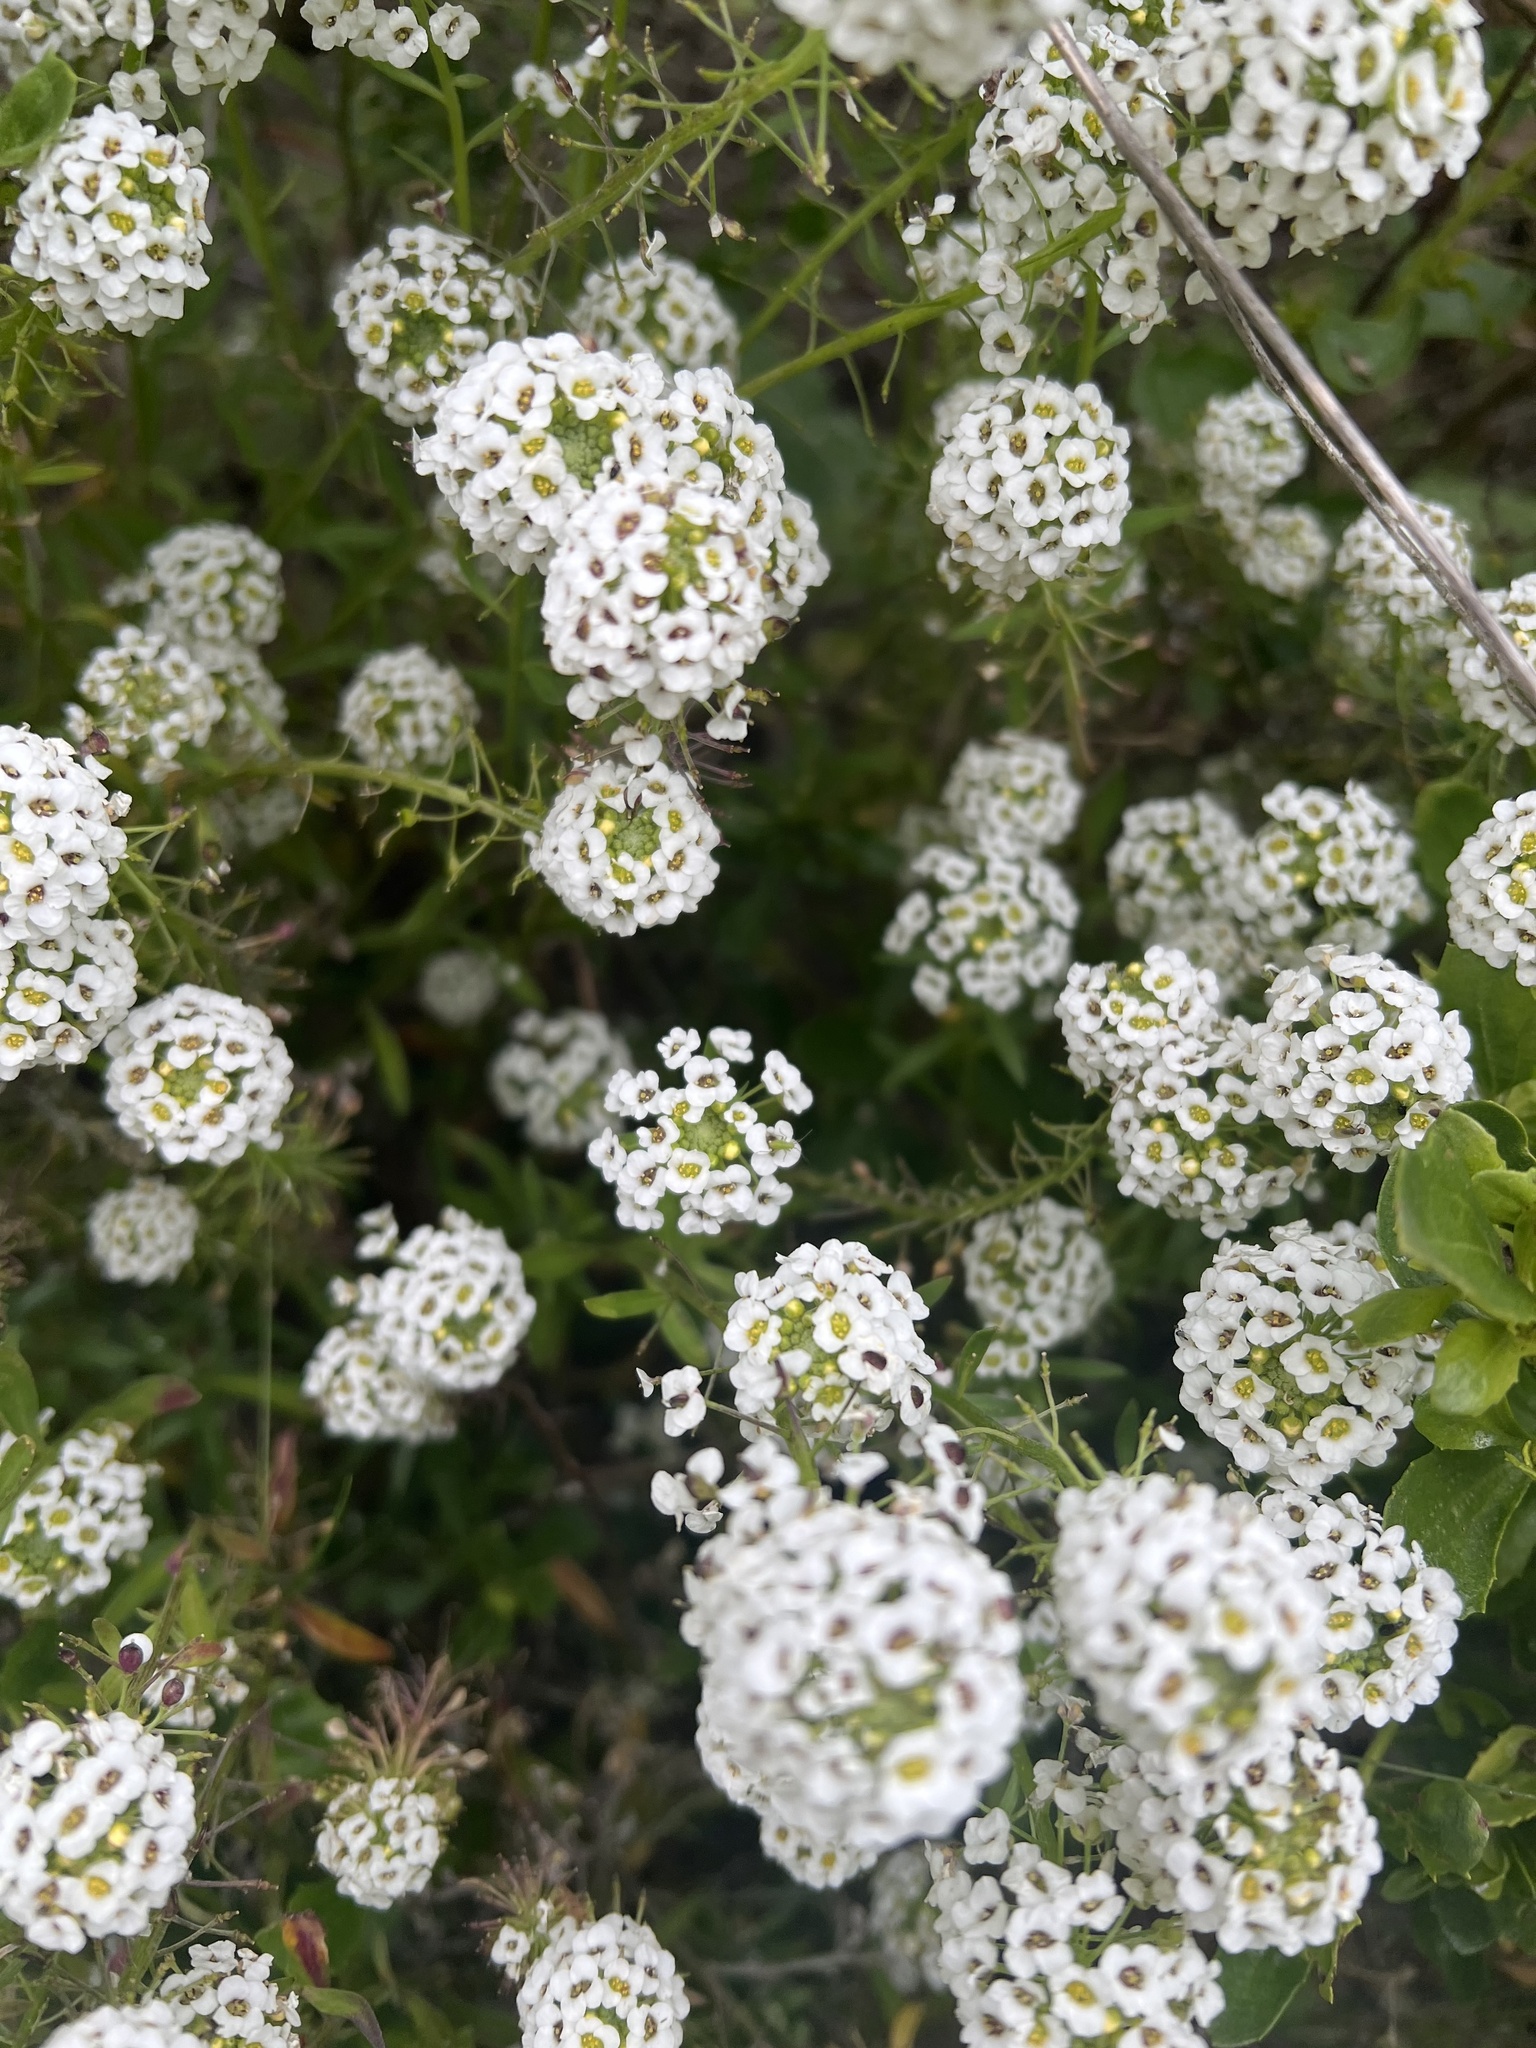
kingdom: Plantae
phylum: Tracheophyta
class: Magnoliopsida
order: Brassicales
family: Brassicaceae
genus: Lobularia
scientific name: Lobularia maritima
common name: Sweet alison
